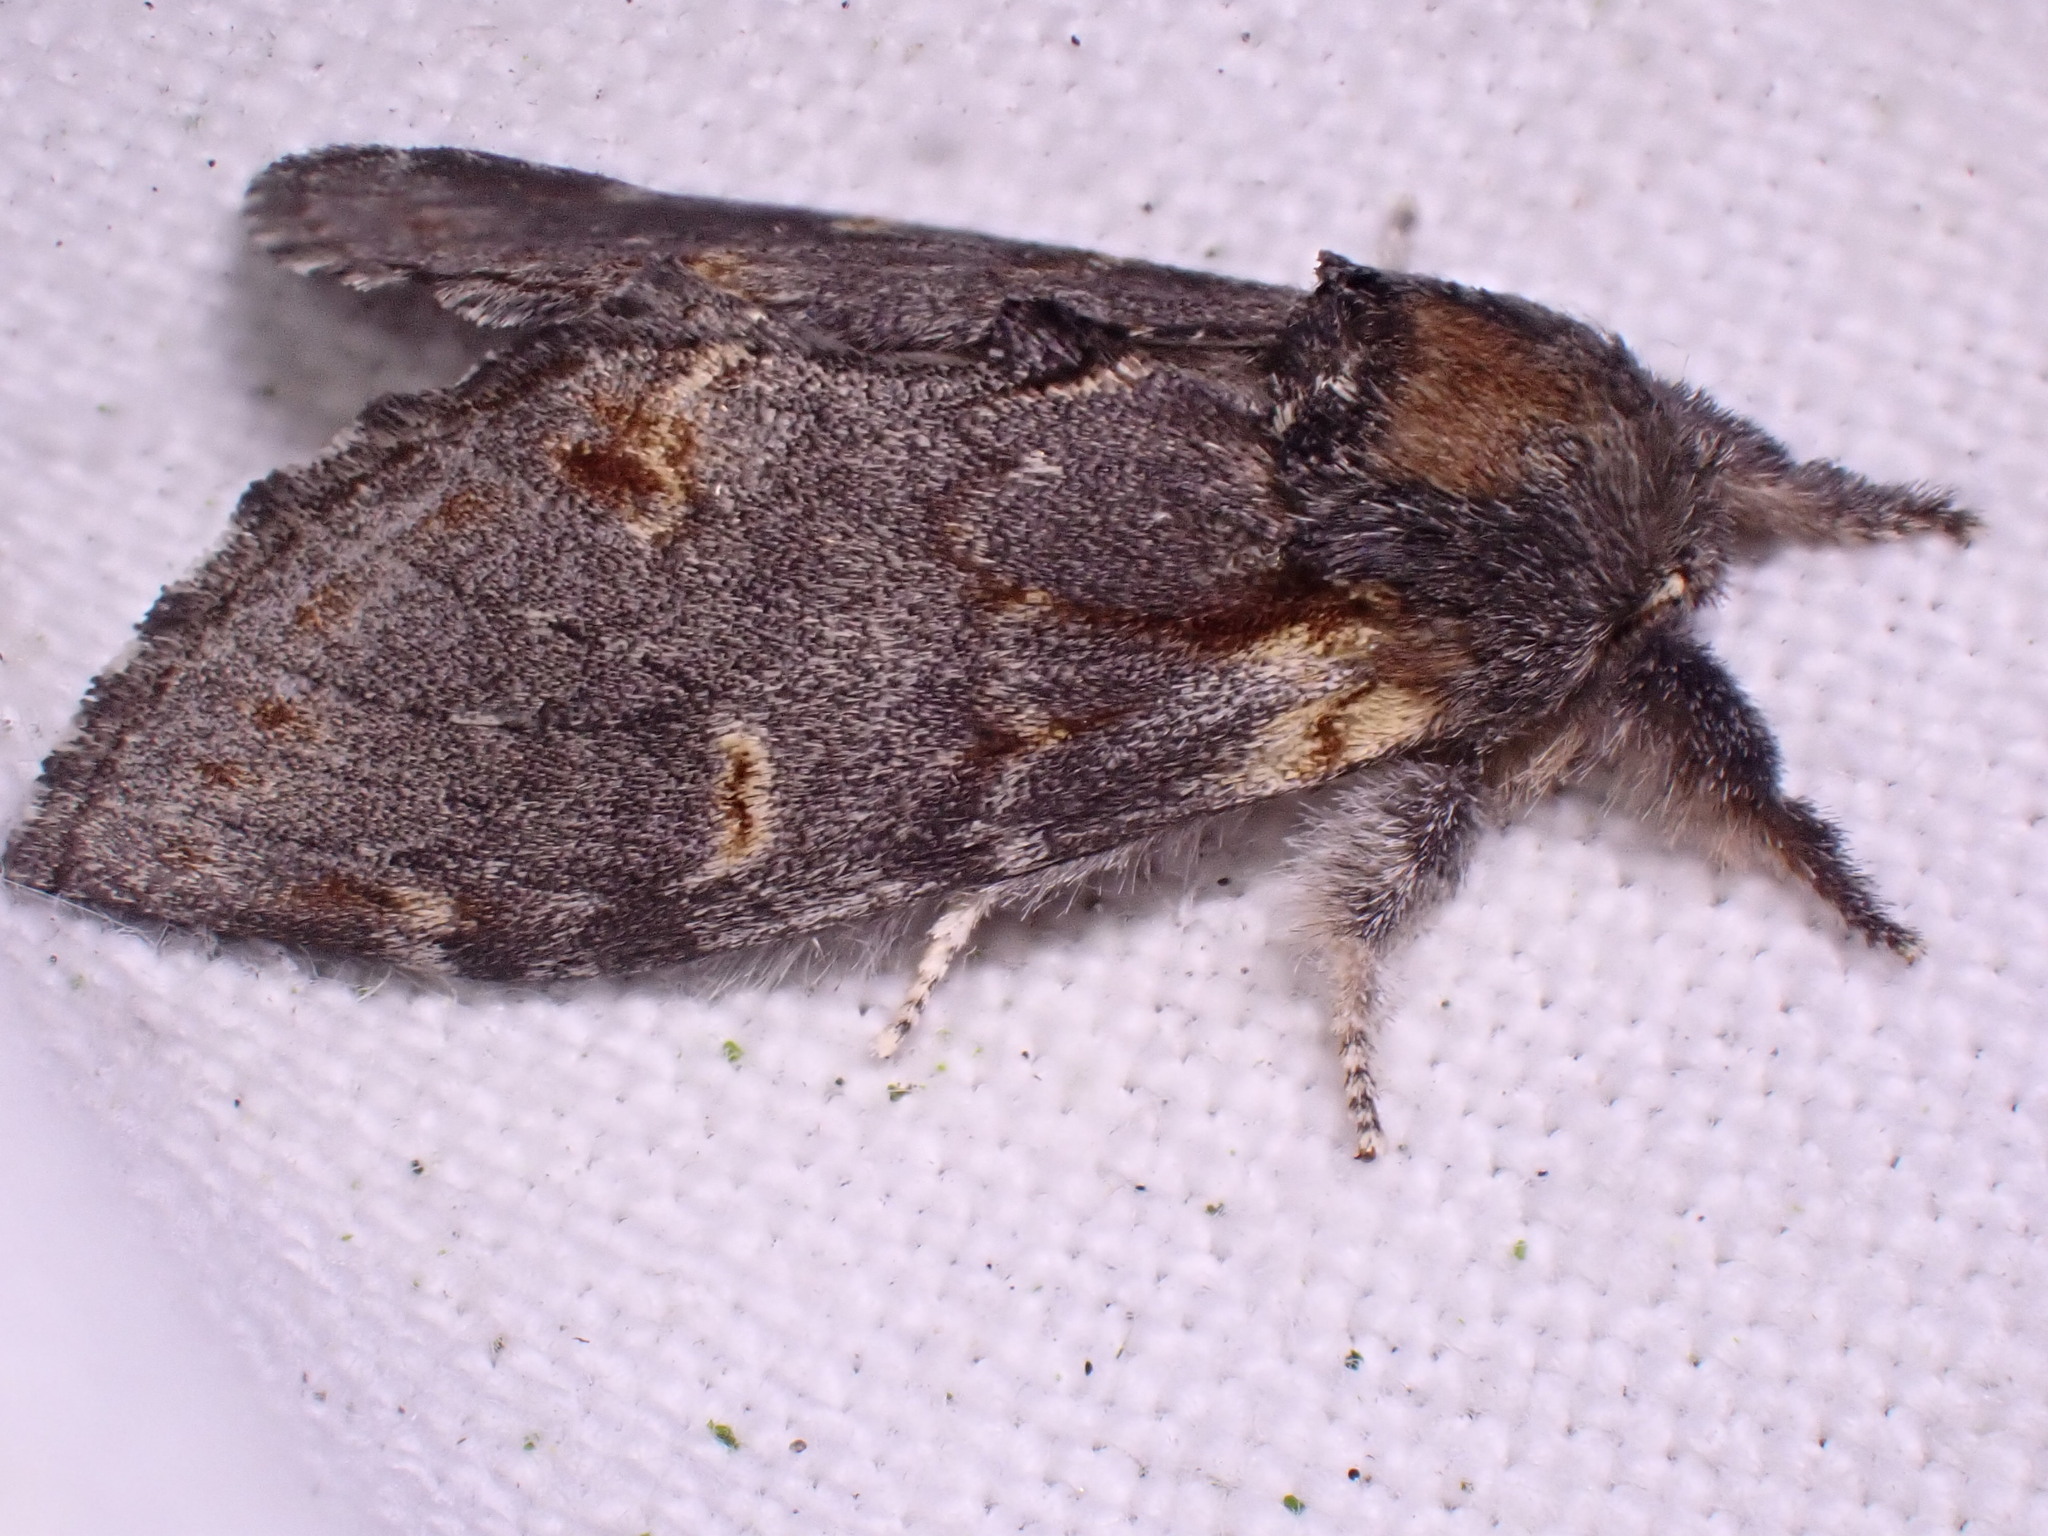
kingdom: Animalia
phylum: Arthropoda
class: Insecta
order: Lepidoptera
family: Notodontidae
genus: Notodonta
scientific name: Notodonta dromedarius
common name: Iron prominent
